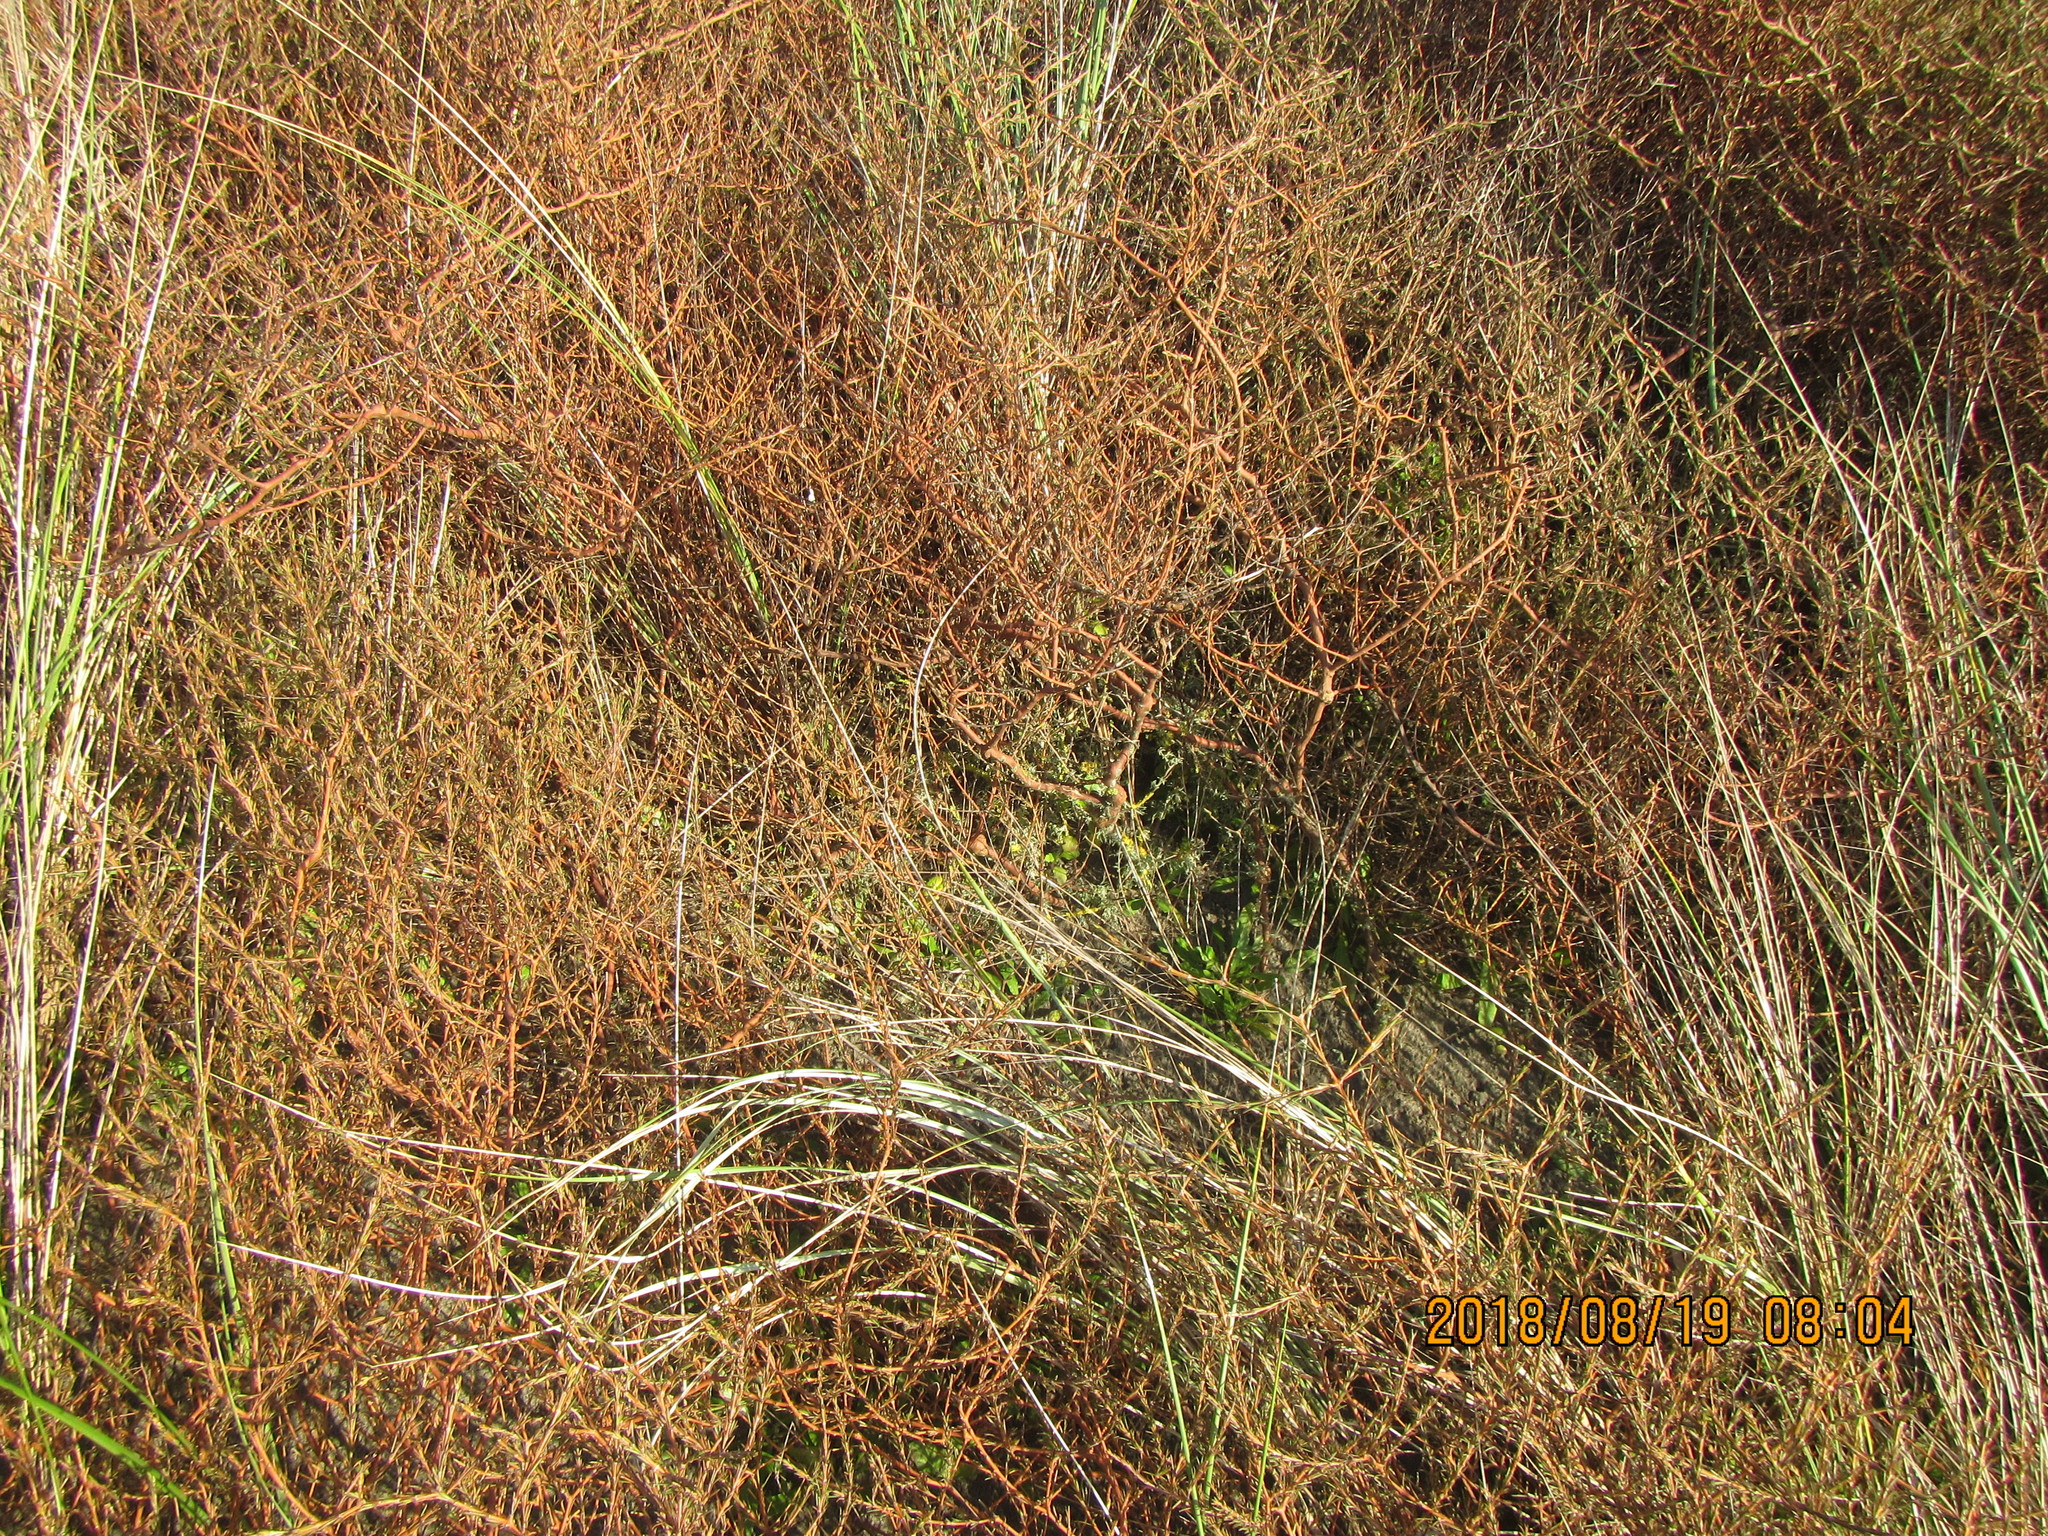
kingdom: Plantae
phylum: Tracheophyta
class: Magnoliopsida
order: Gentianales
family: Rubiaceae
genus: Coprosma
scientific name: Coprosma acerosa
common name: Sand coprosma
